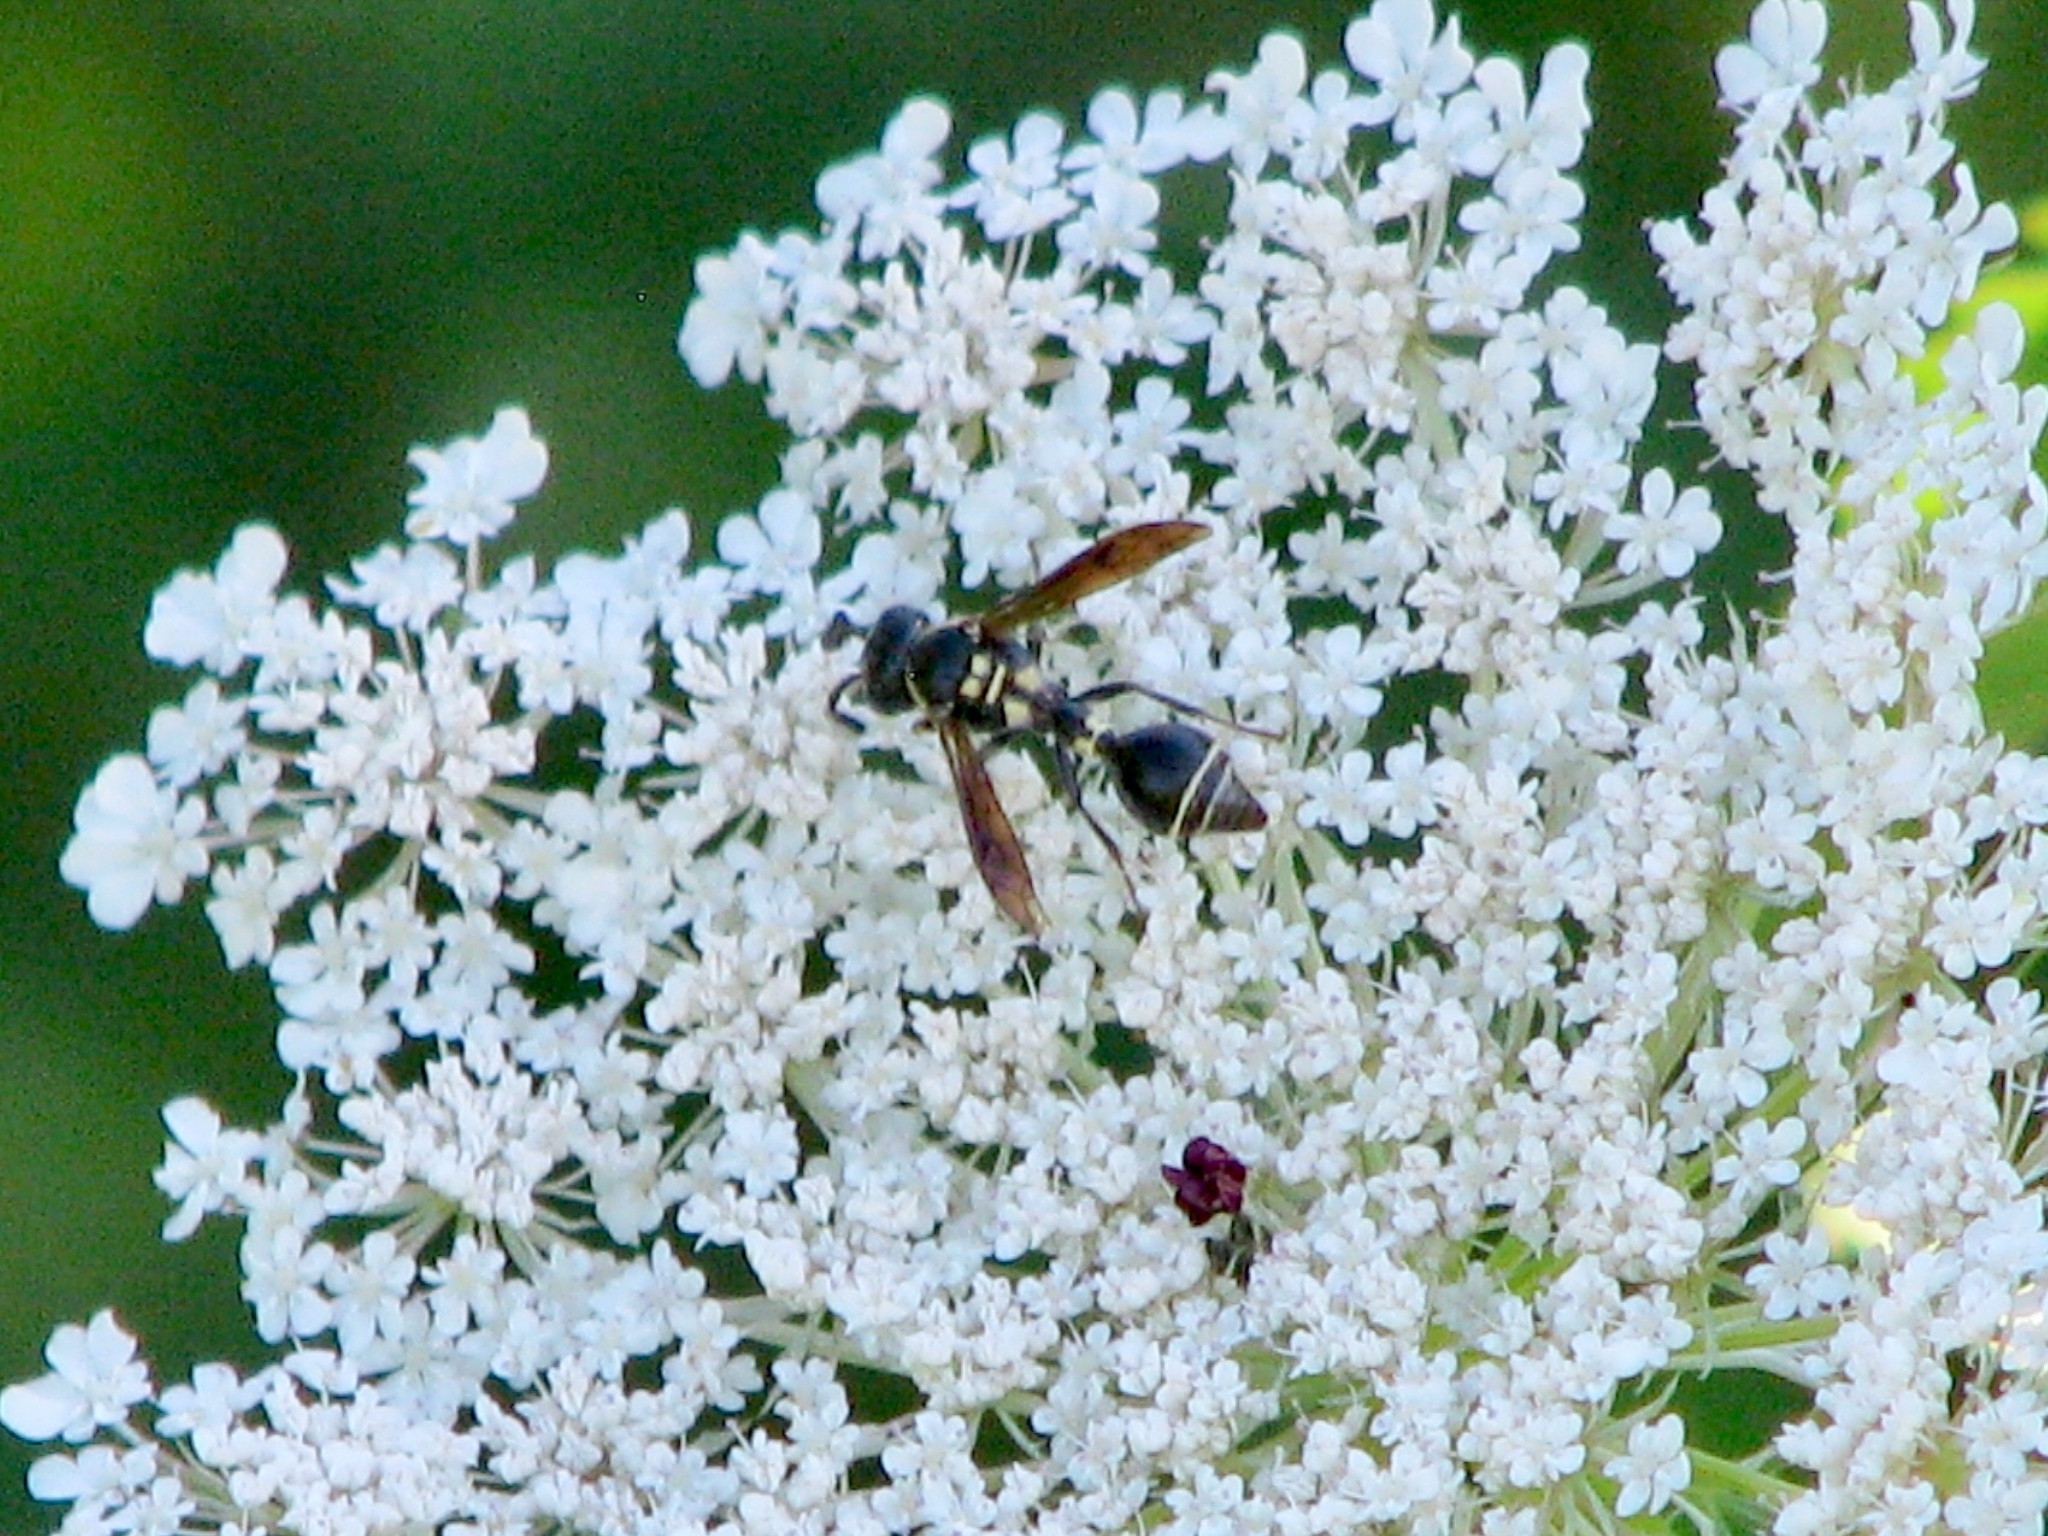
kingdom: Animalia
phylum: Arthropoda
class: Insecta
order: Hymenoptera
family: Eumenidae
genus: Zethus
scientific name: Zethus spinipes
